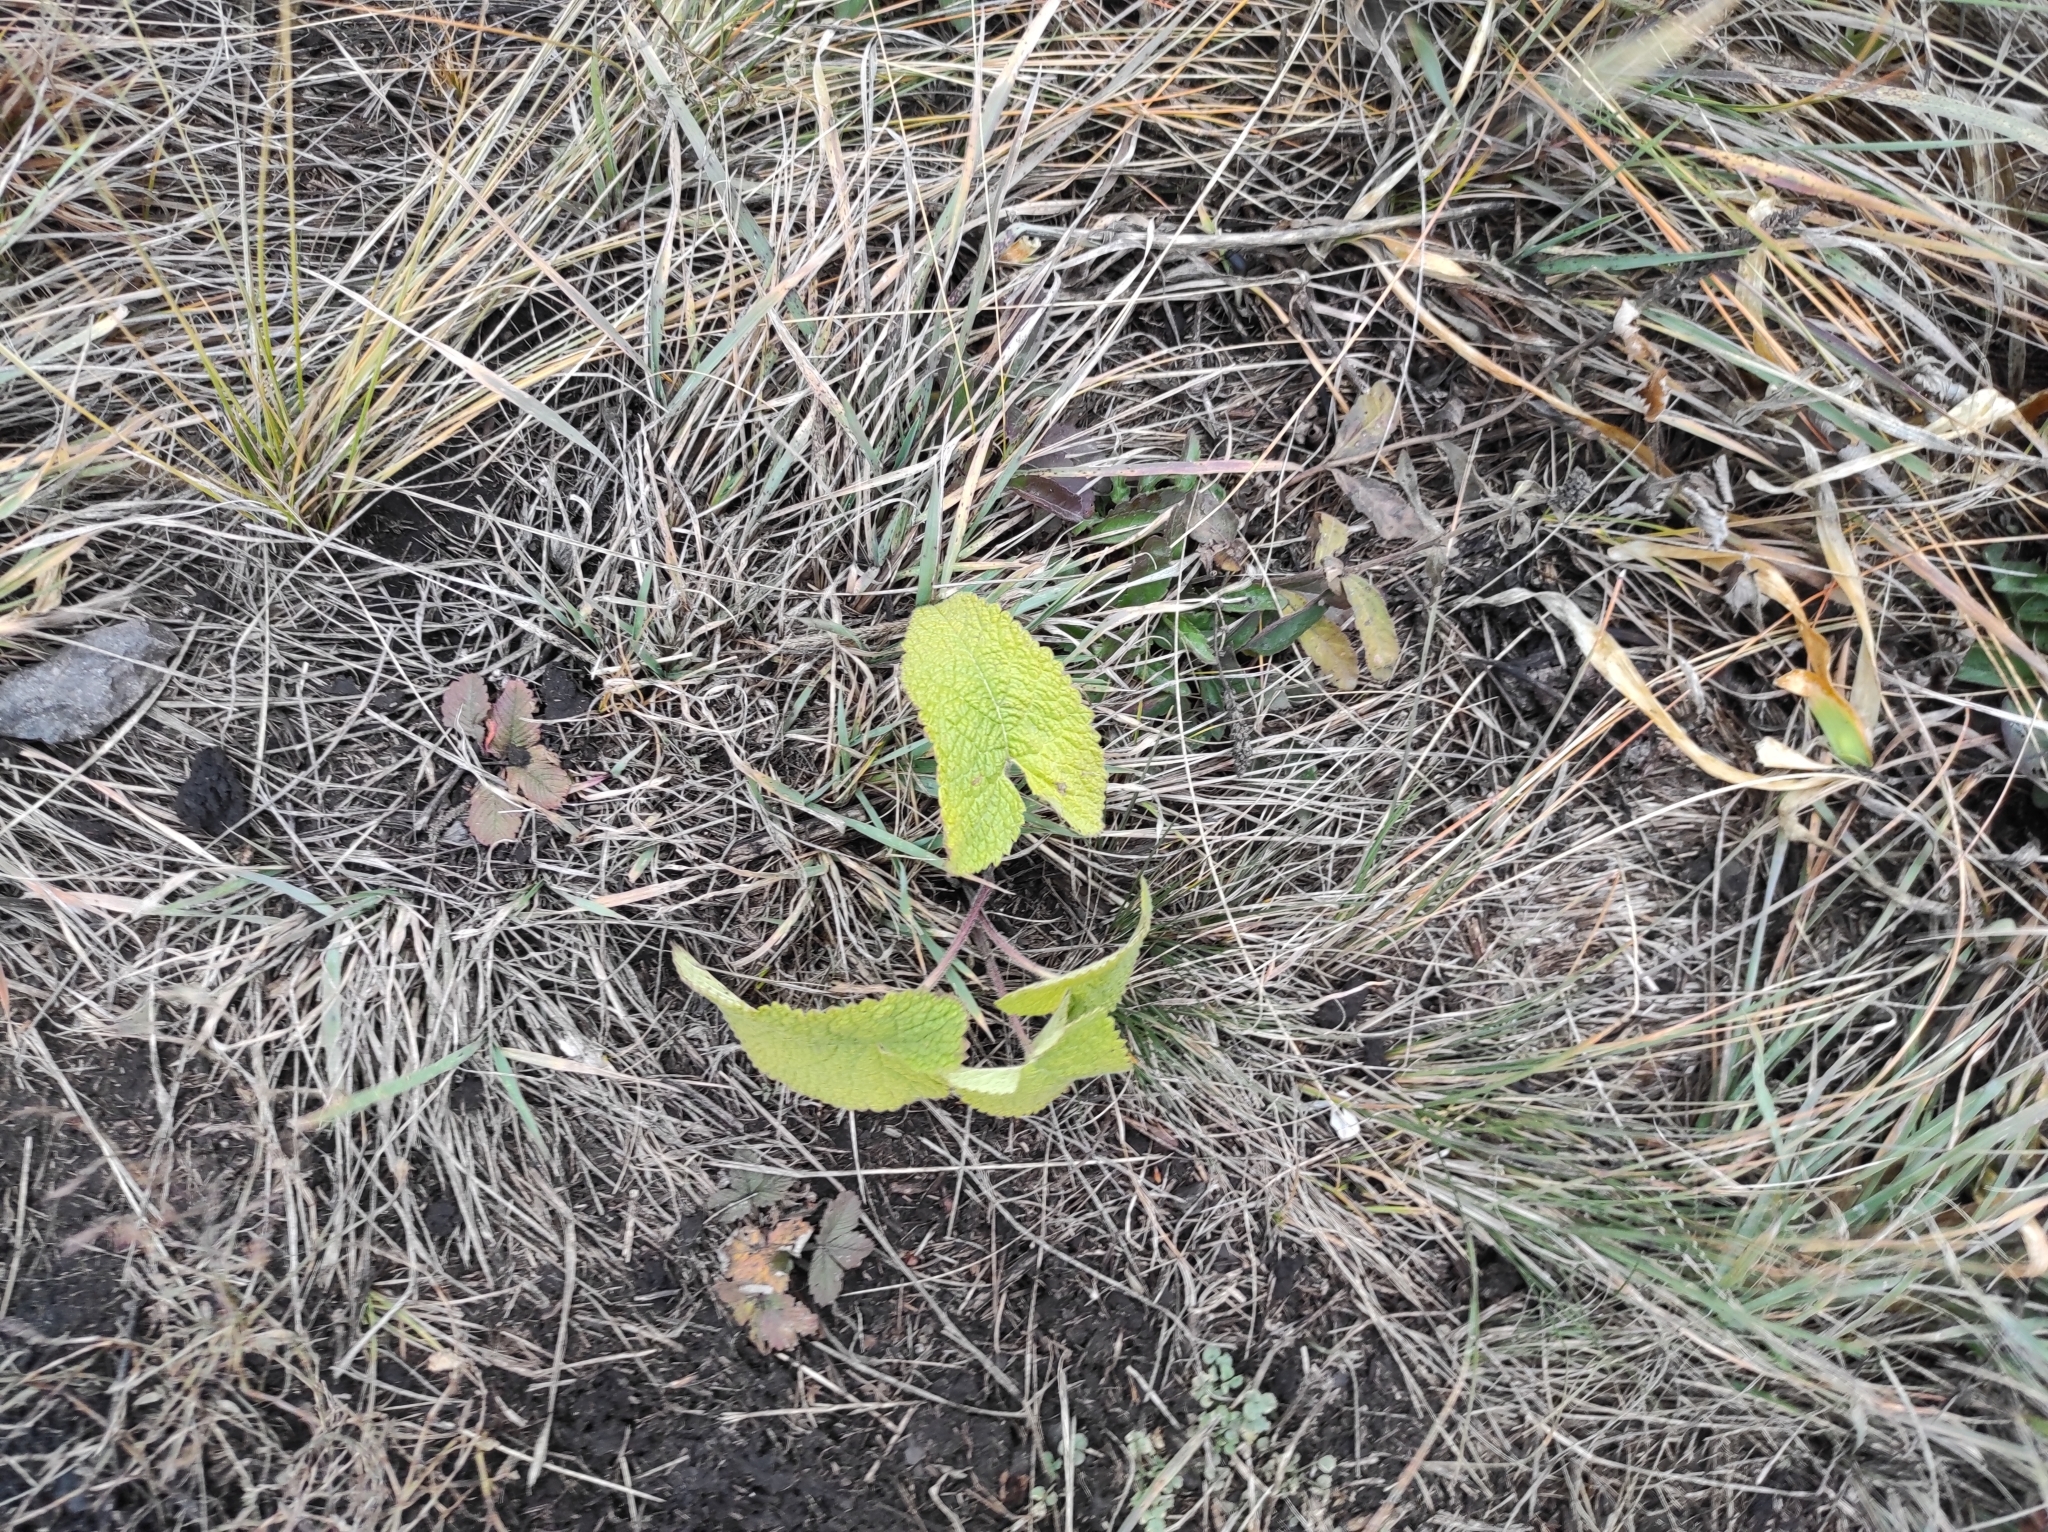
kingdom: Plantae
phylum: Tracheophyta
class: Magnoliopsida
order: Lamiales
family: Lamiaceae
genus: Phlomoides
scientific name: Phlomoides tuberosa
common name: Tuberous jerusalem sage
